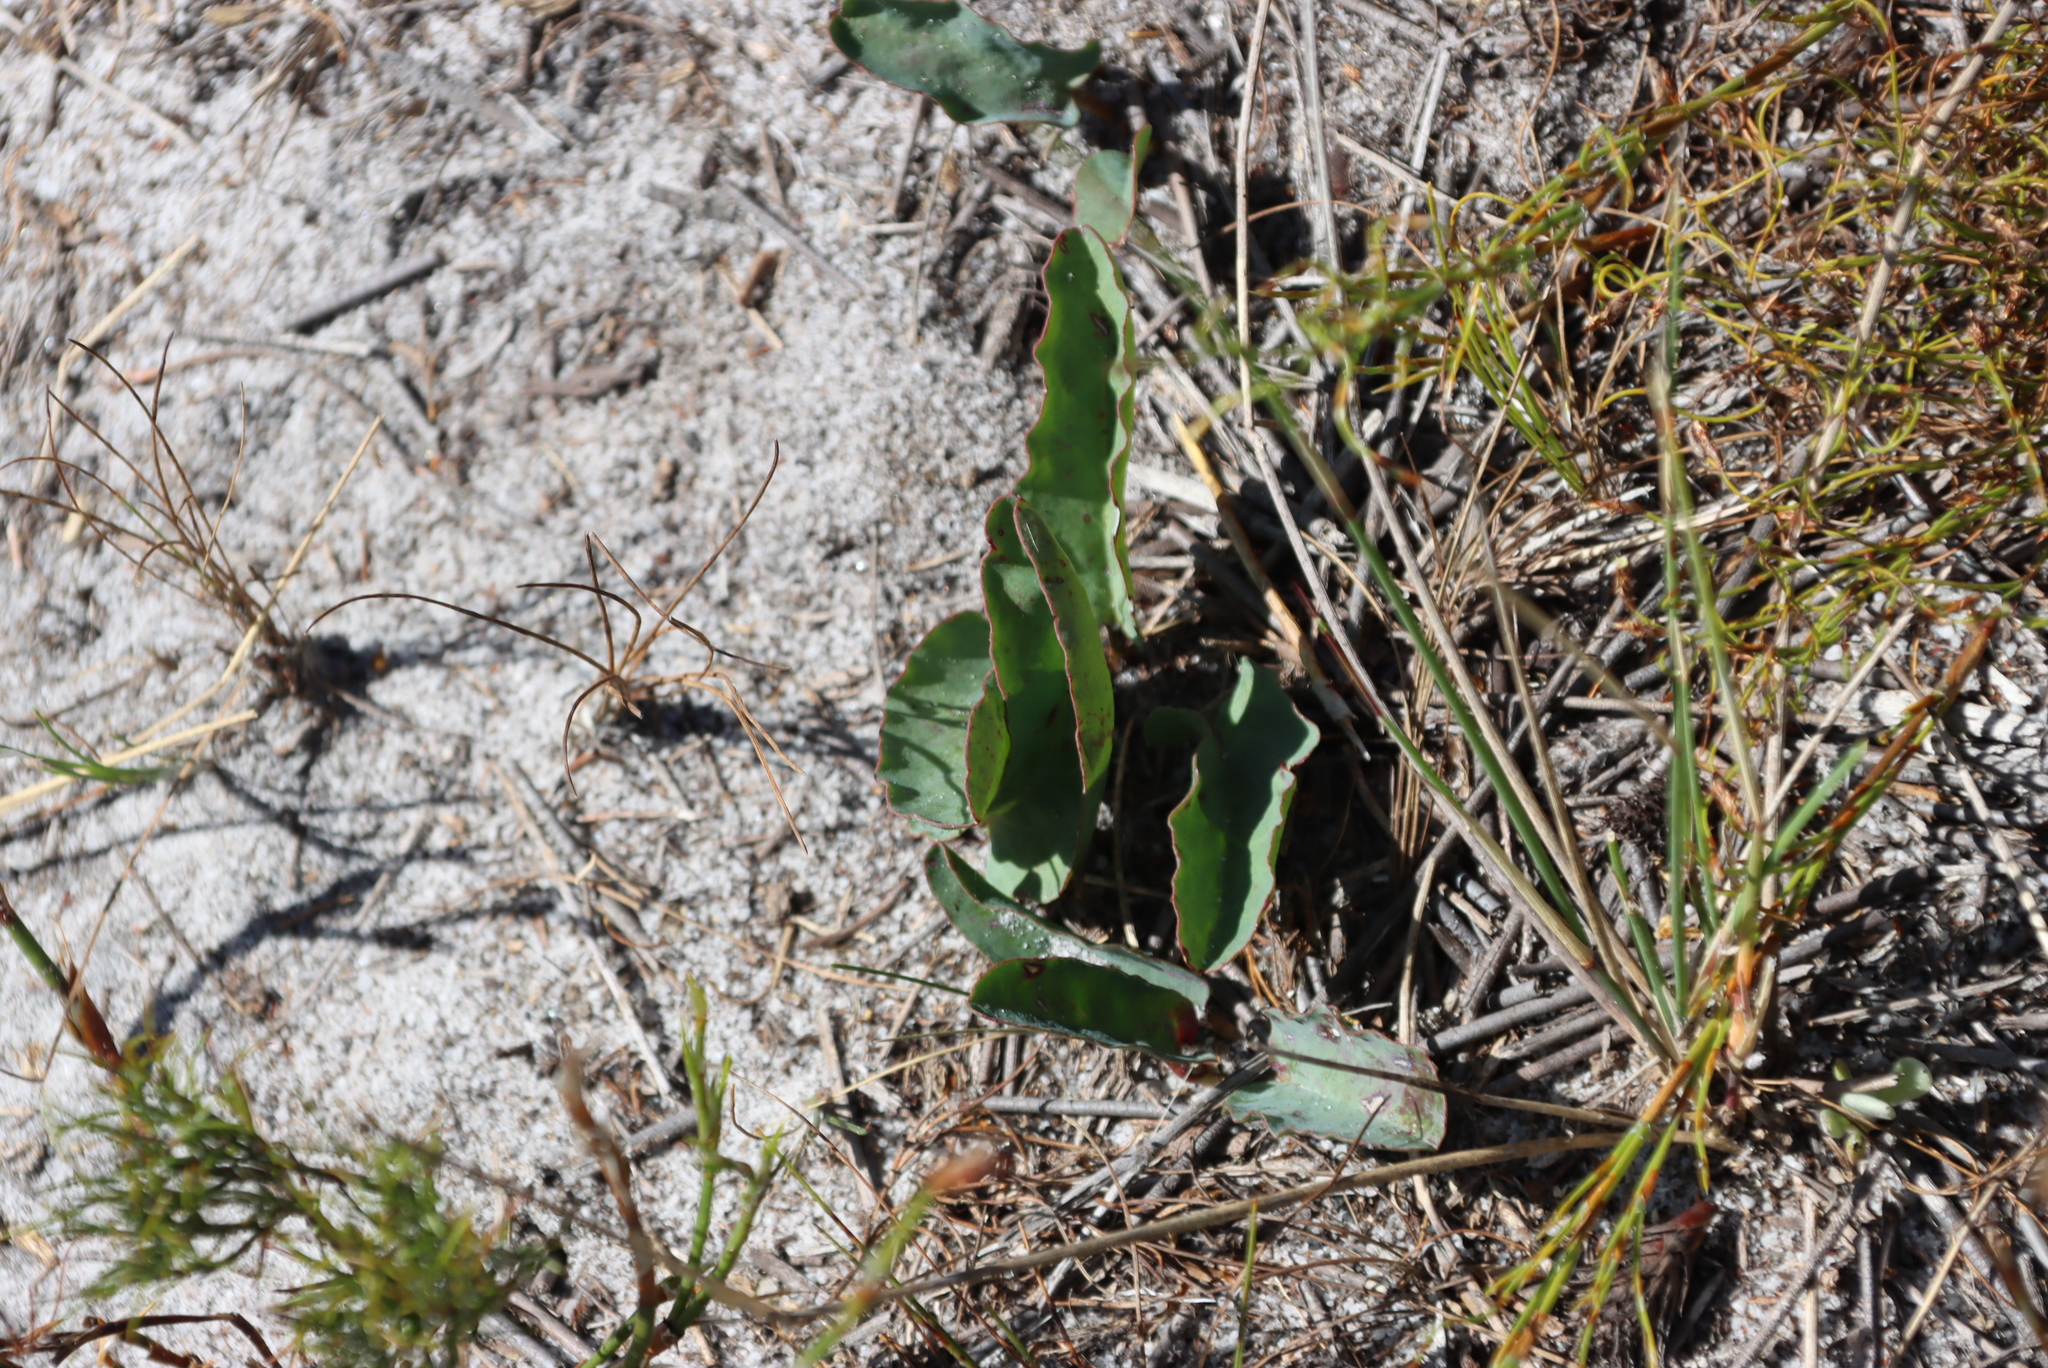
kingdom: Plantae
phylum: Tracheophyta
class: Magnoliopsida
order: Malpighiales
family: Euphorbiaceae
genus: Euphorbia
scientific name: Euphorbia tuberosa
